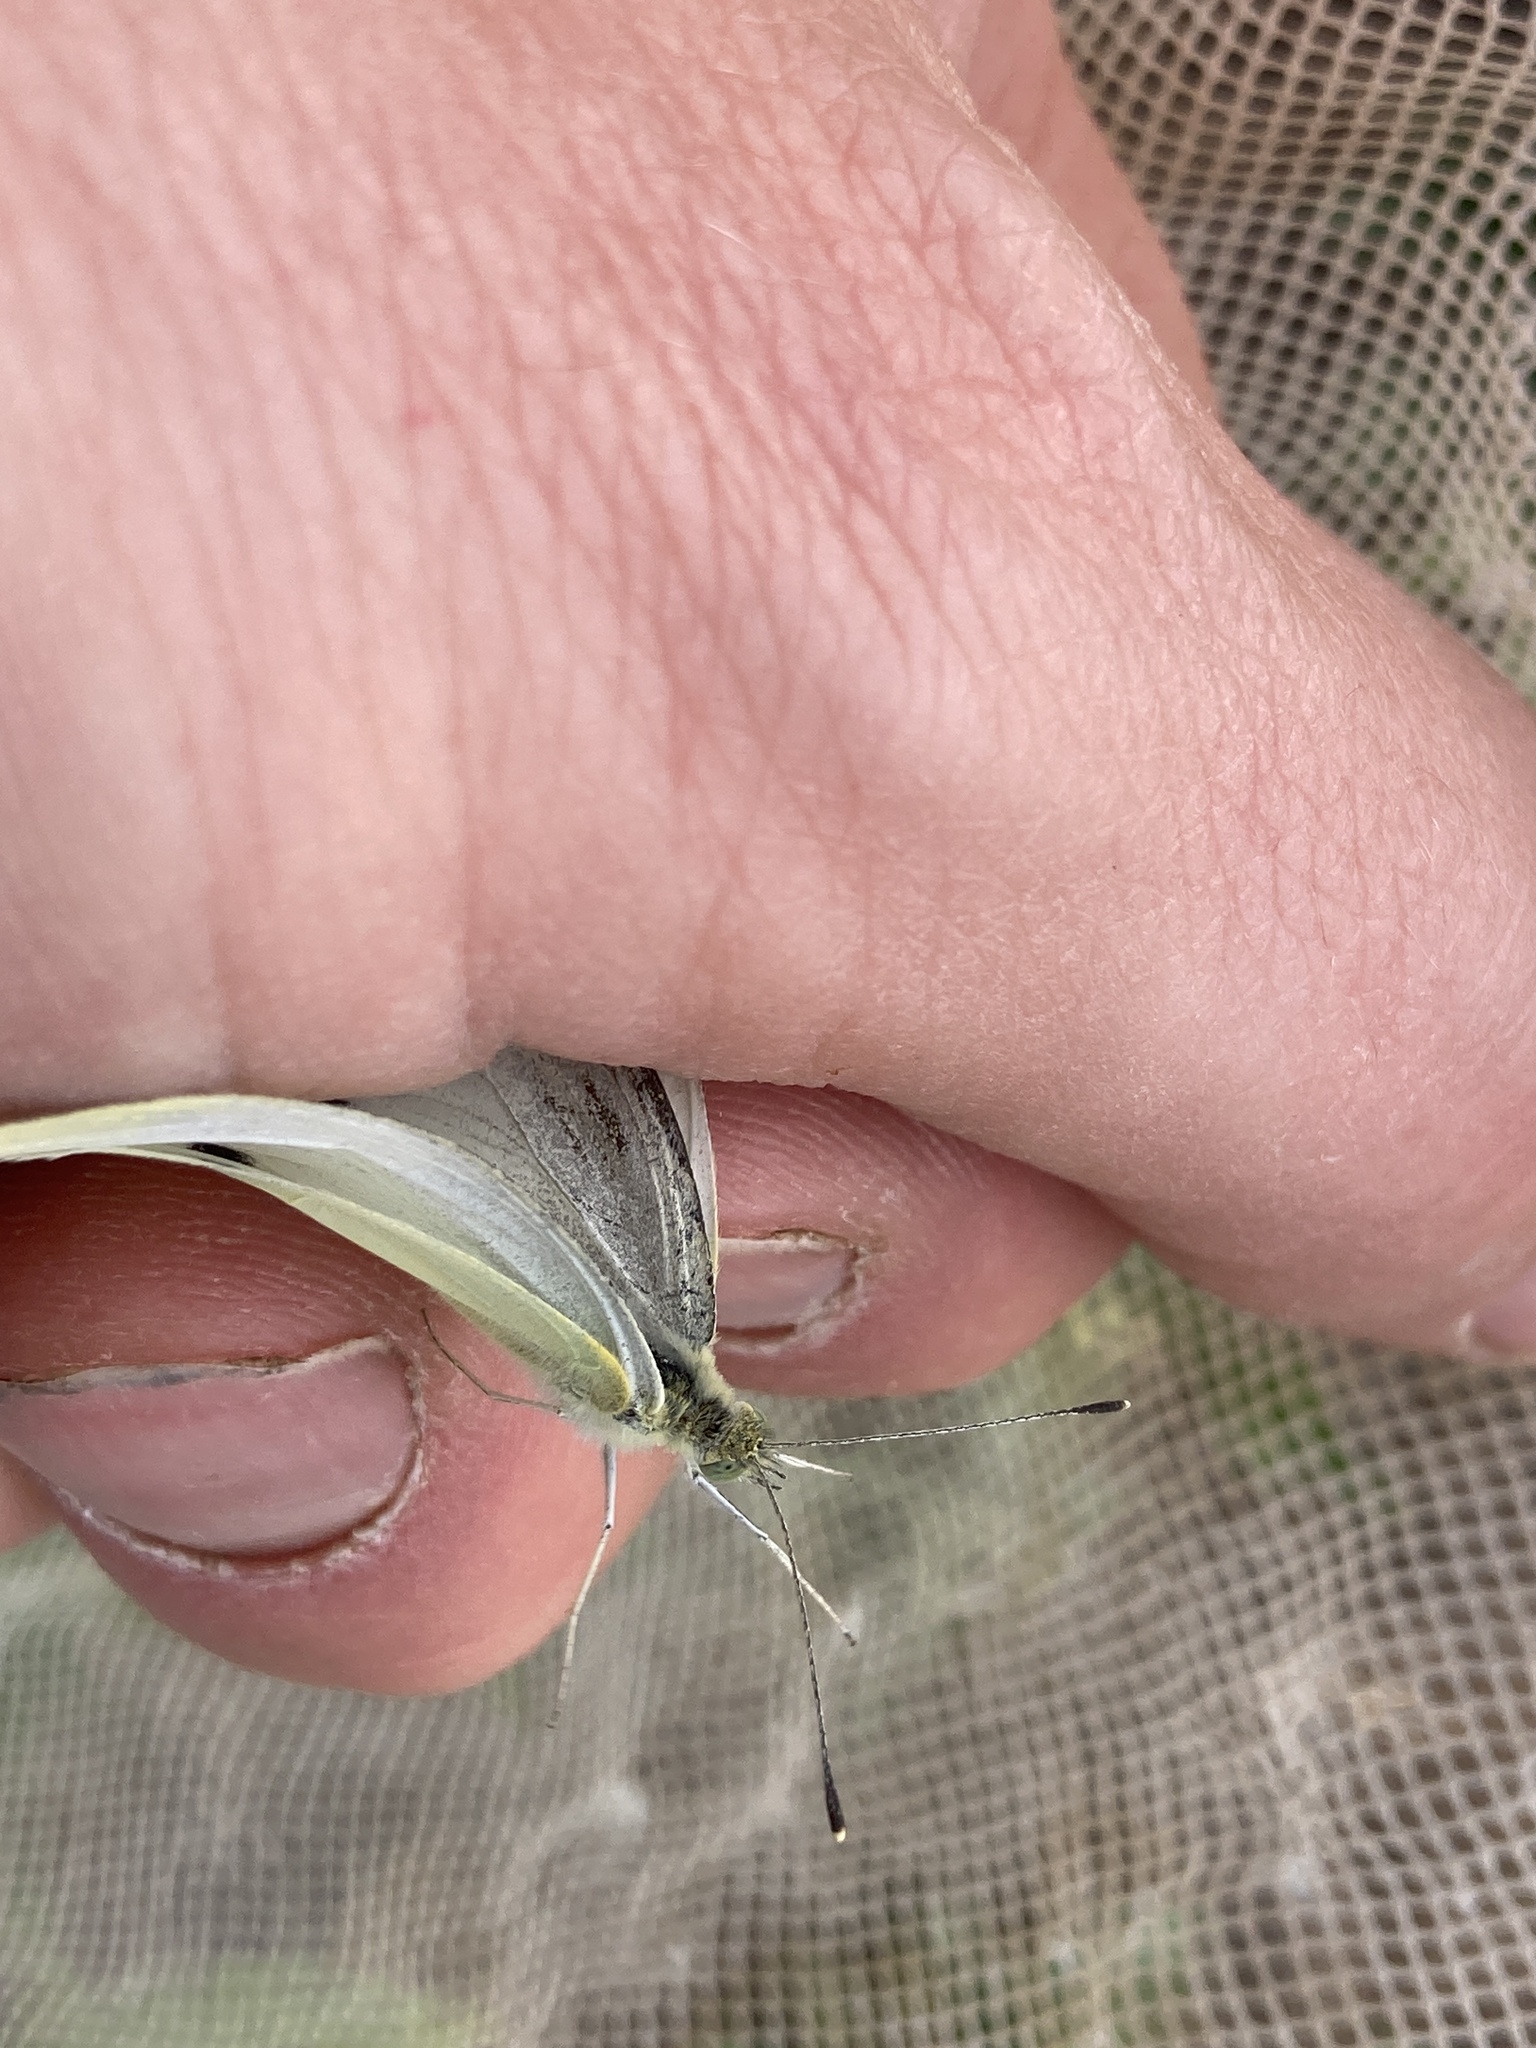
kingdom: Animalia
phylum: Arthropoda
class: Insecta
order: Lepidoptera
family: Pieridae
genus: Pieris
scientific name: Pieris rapae
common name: Small white
